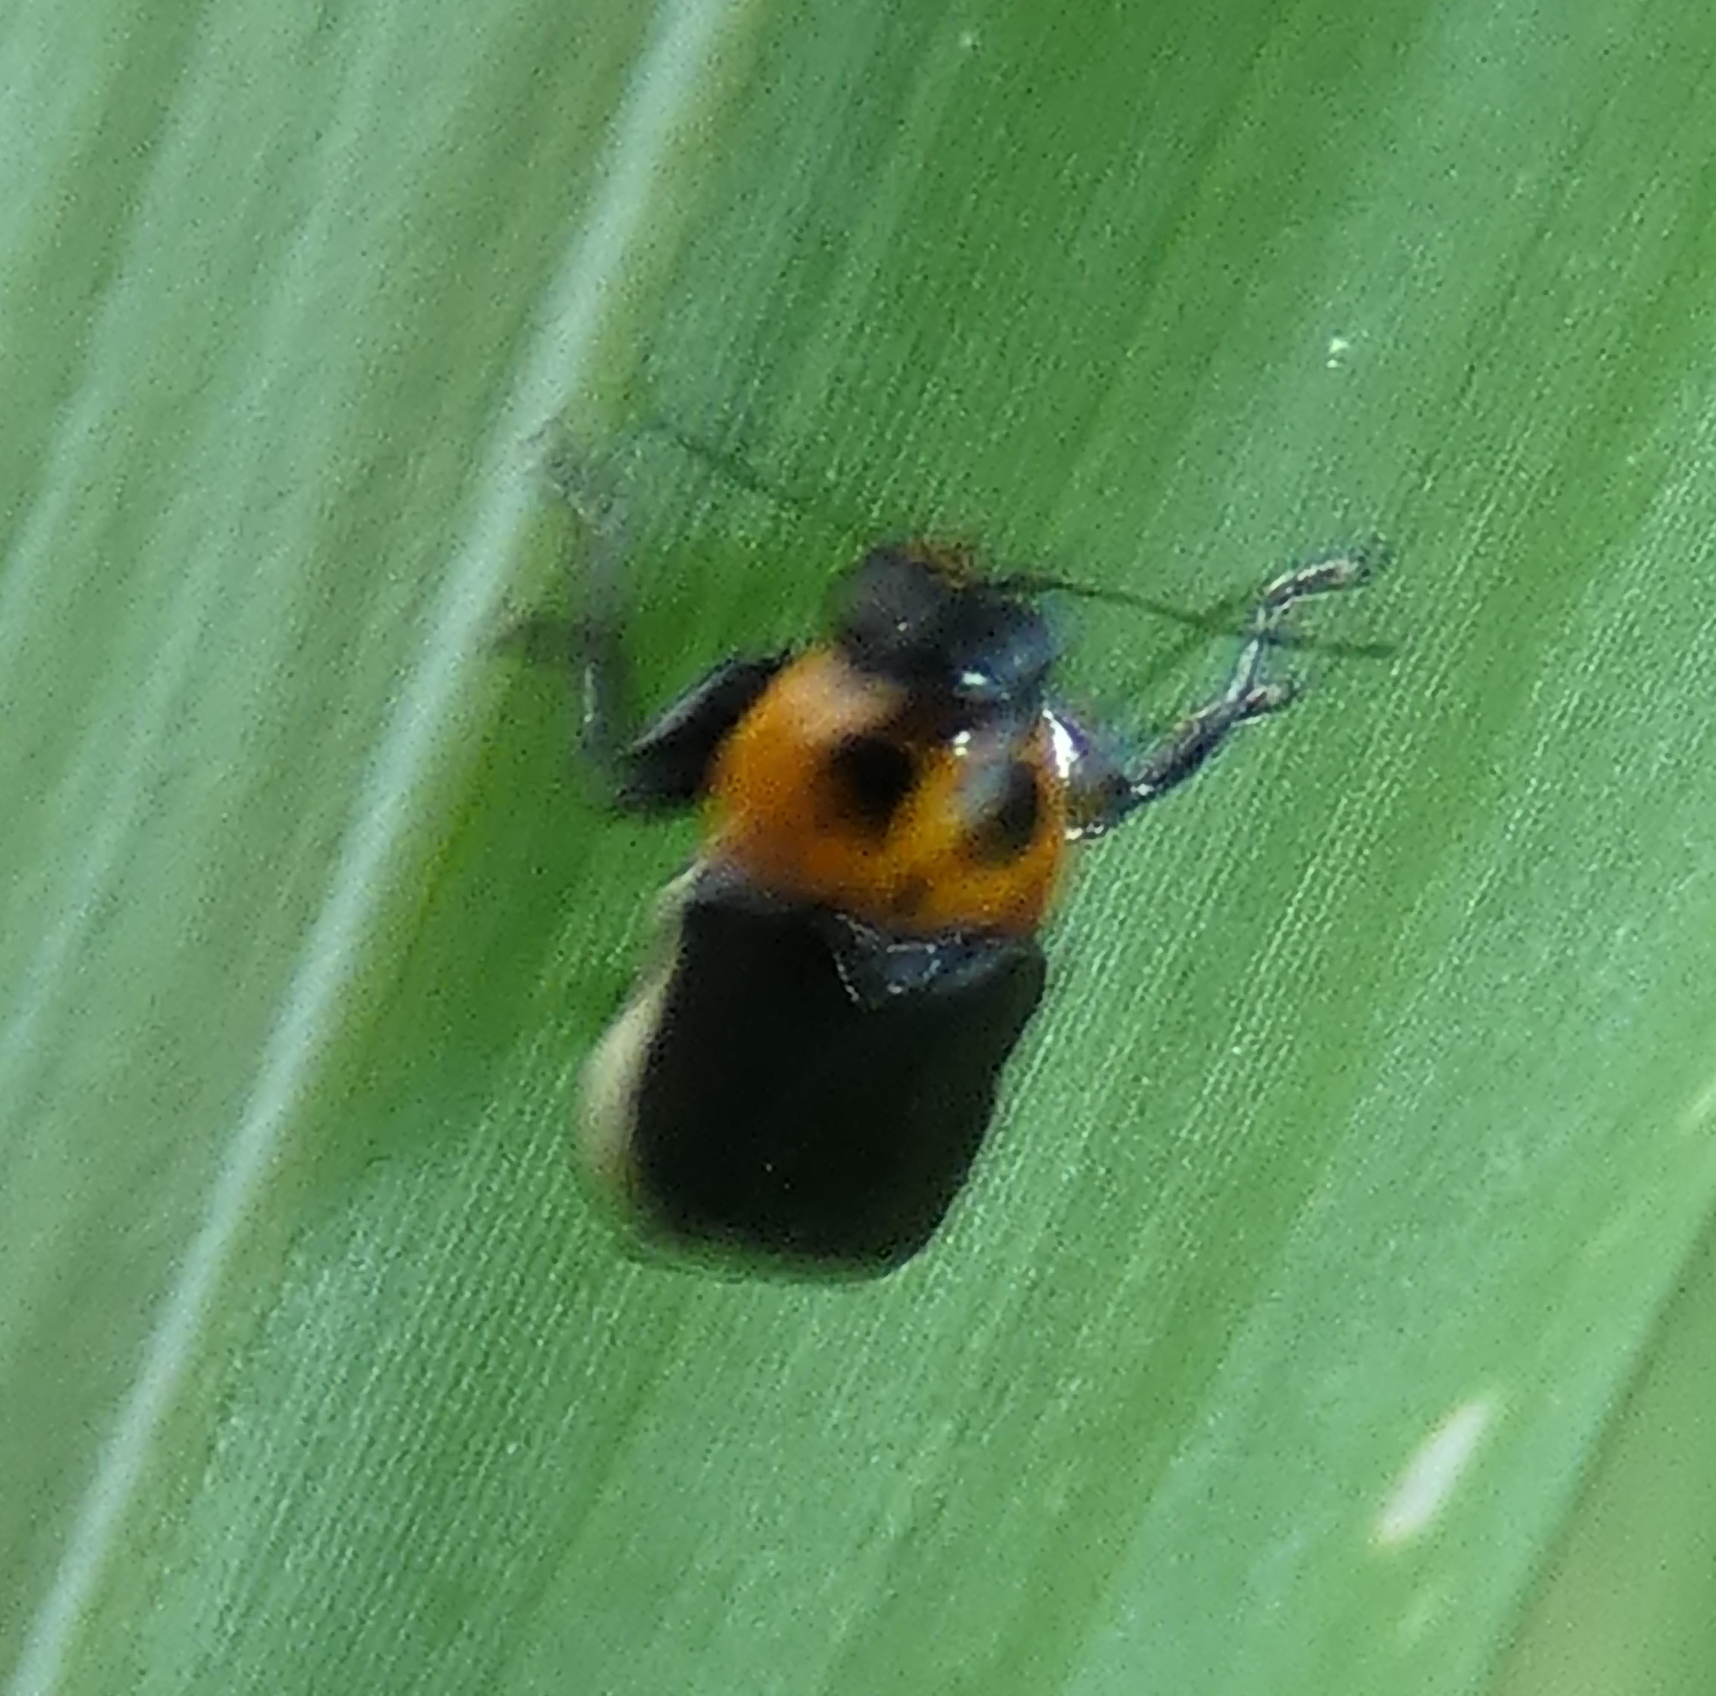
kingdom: Animalia
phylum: Arthropoda
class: Insecta
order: Coleoptera
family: Chrysomelidae
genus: Griburius
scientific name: Griburius
